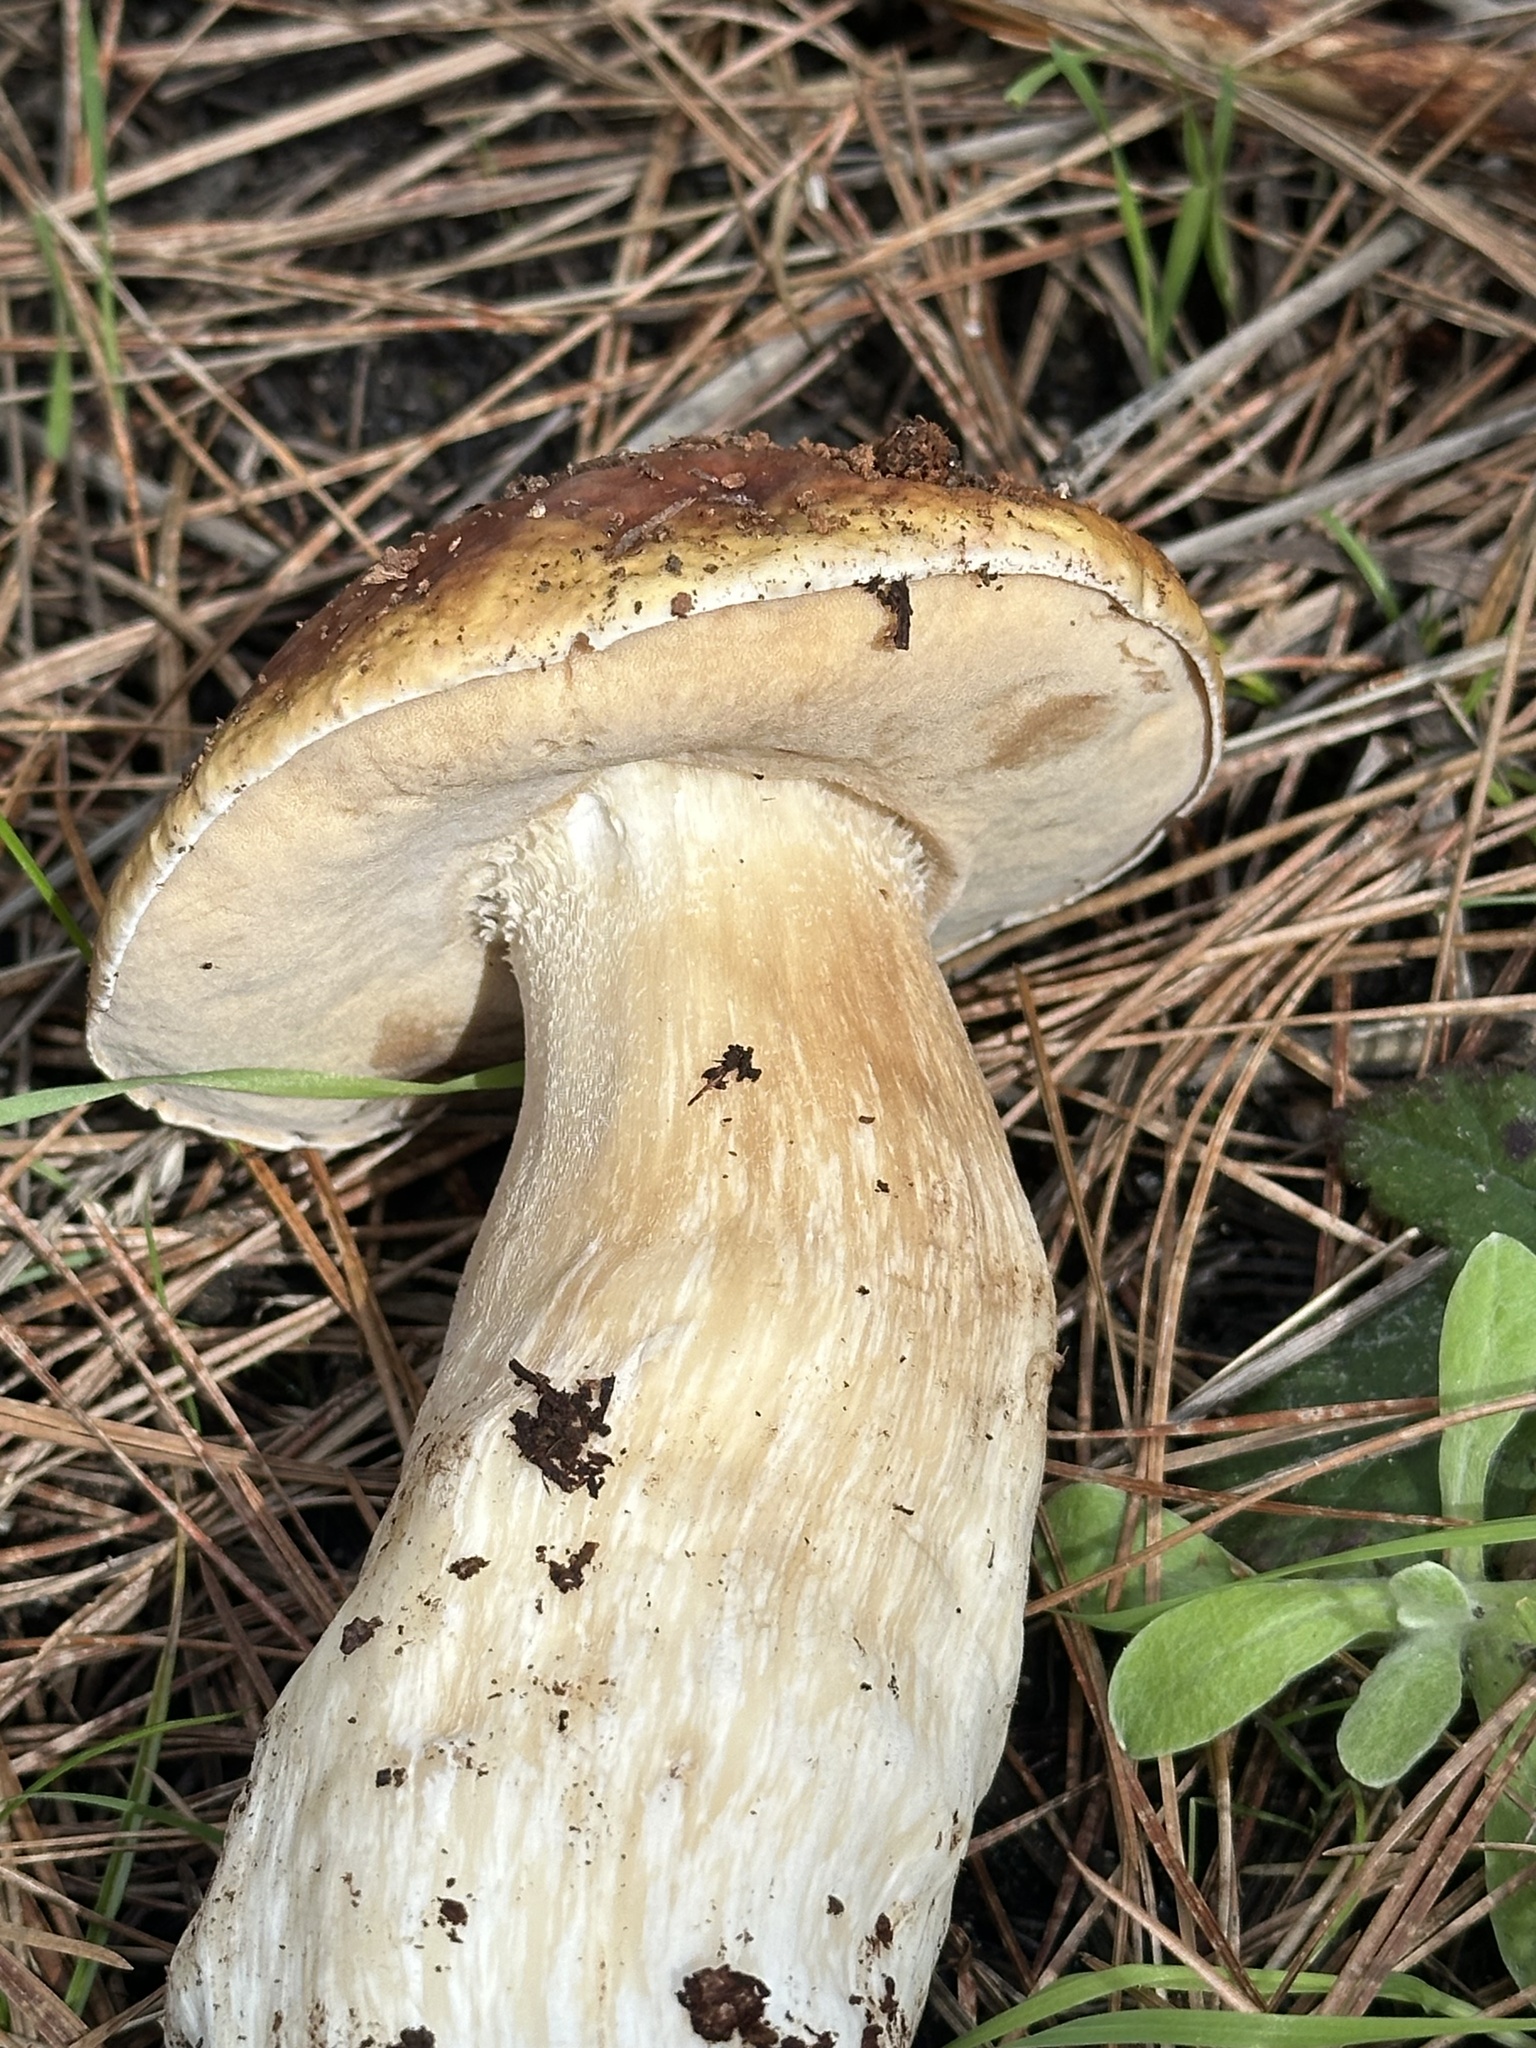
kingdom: Fungi
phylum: Basidiomycota
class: Agaricomycetes
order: Boletales
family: Boletaceae
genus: Boletus
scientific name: Boletus edulis
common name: Cep
